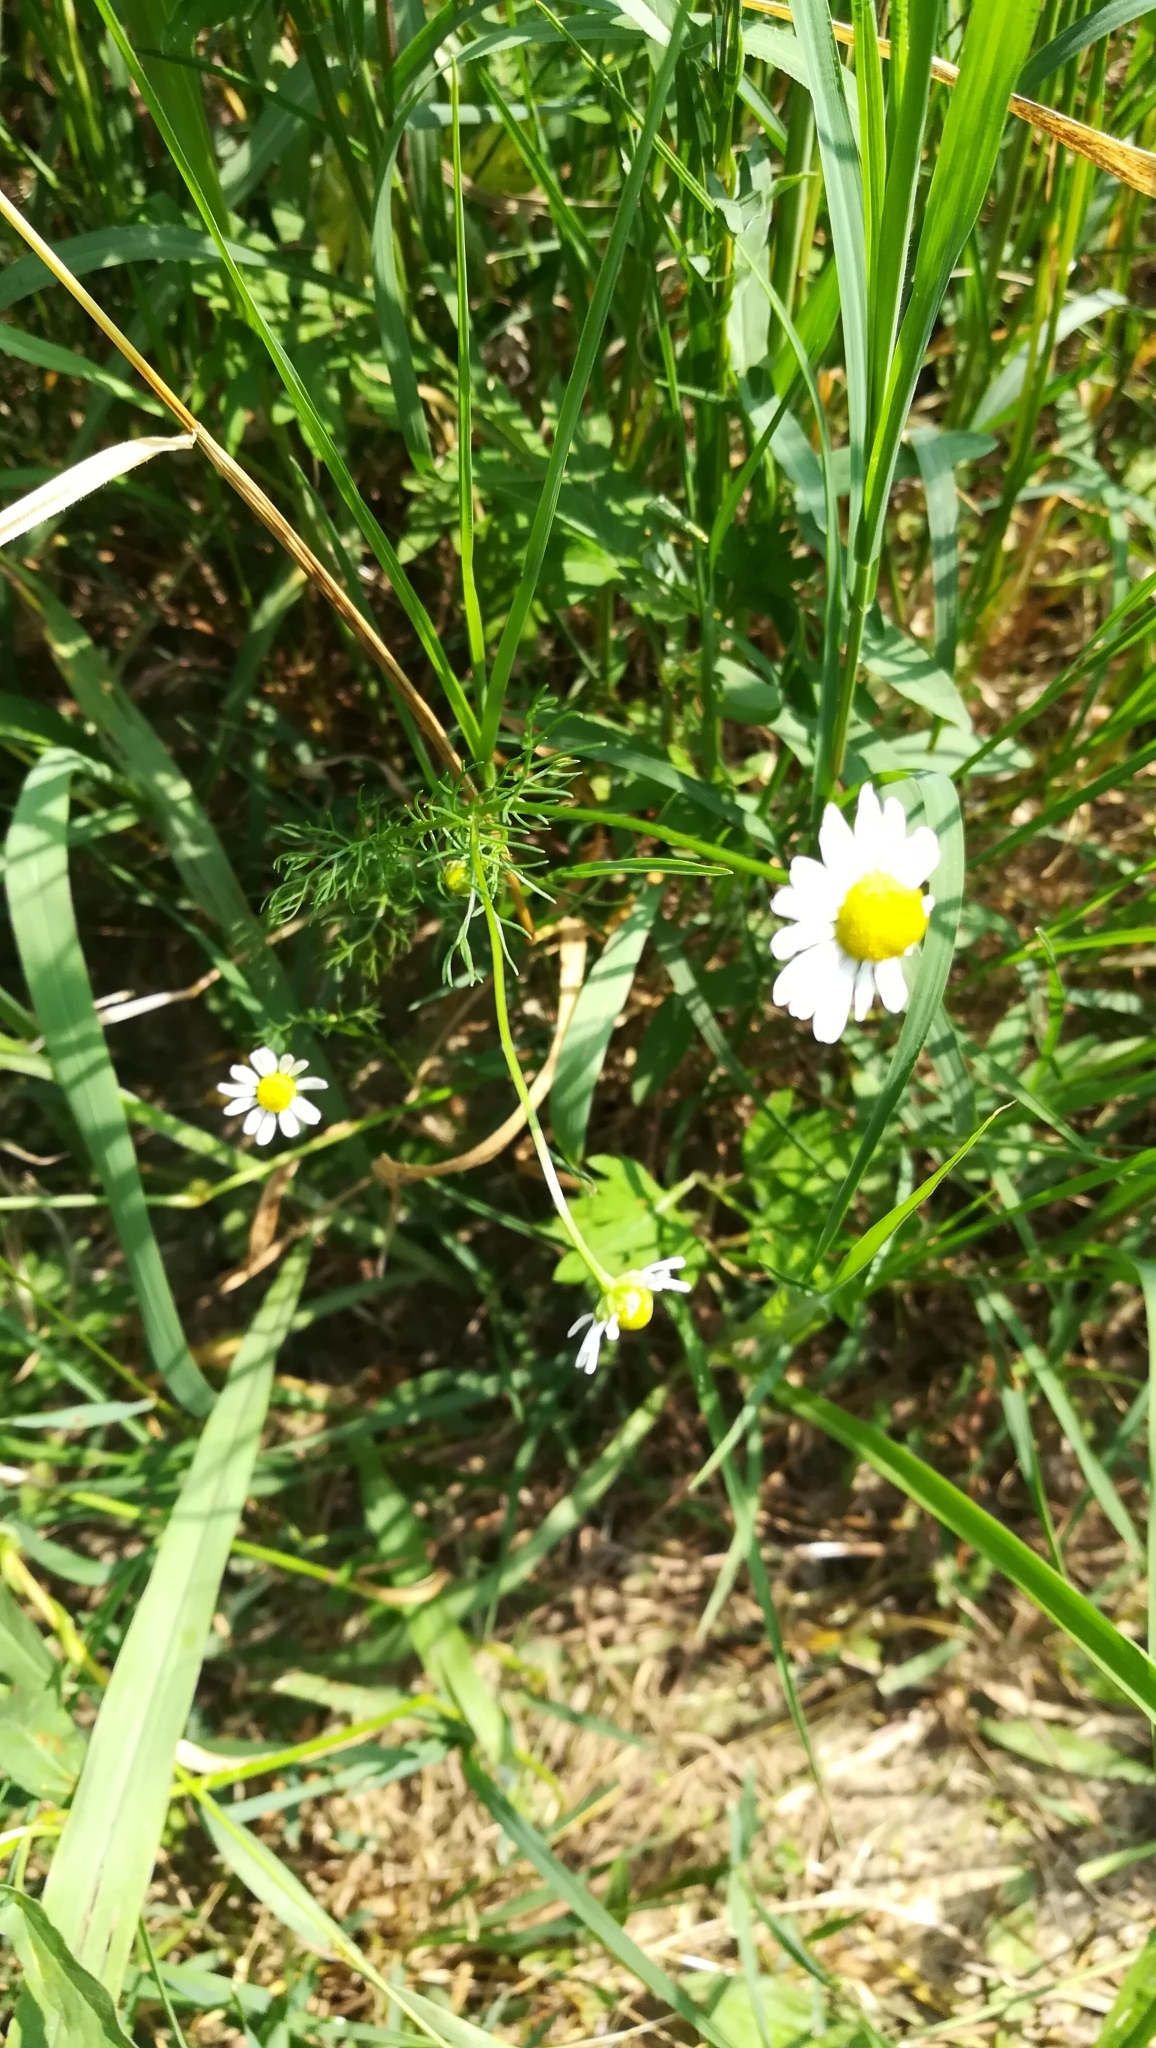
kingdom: Plantae
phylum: Tracheophyta
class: Magnoliopsida
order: Asterales
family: Asteraceae
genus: Matricaria
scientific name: Matricaria chamomilla
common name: Scented mayweed
